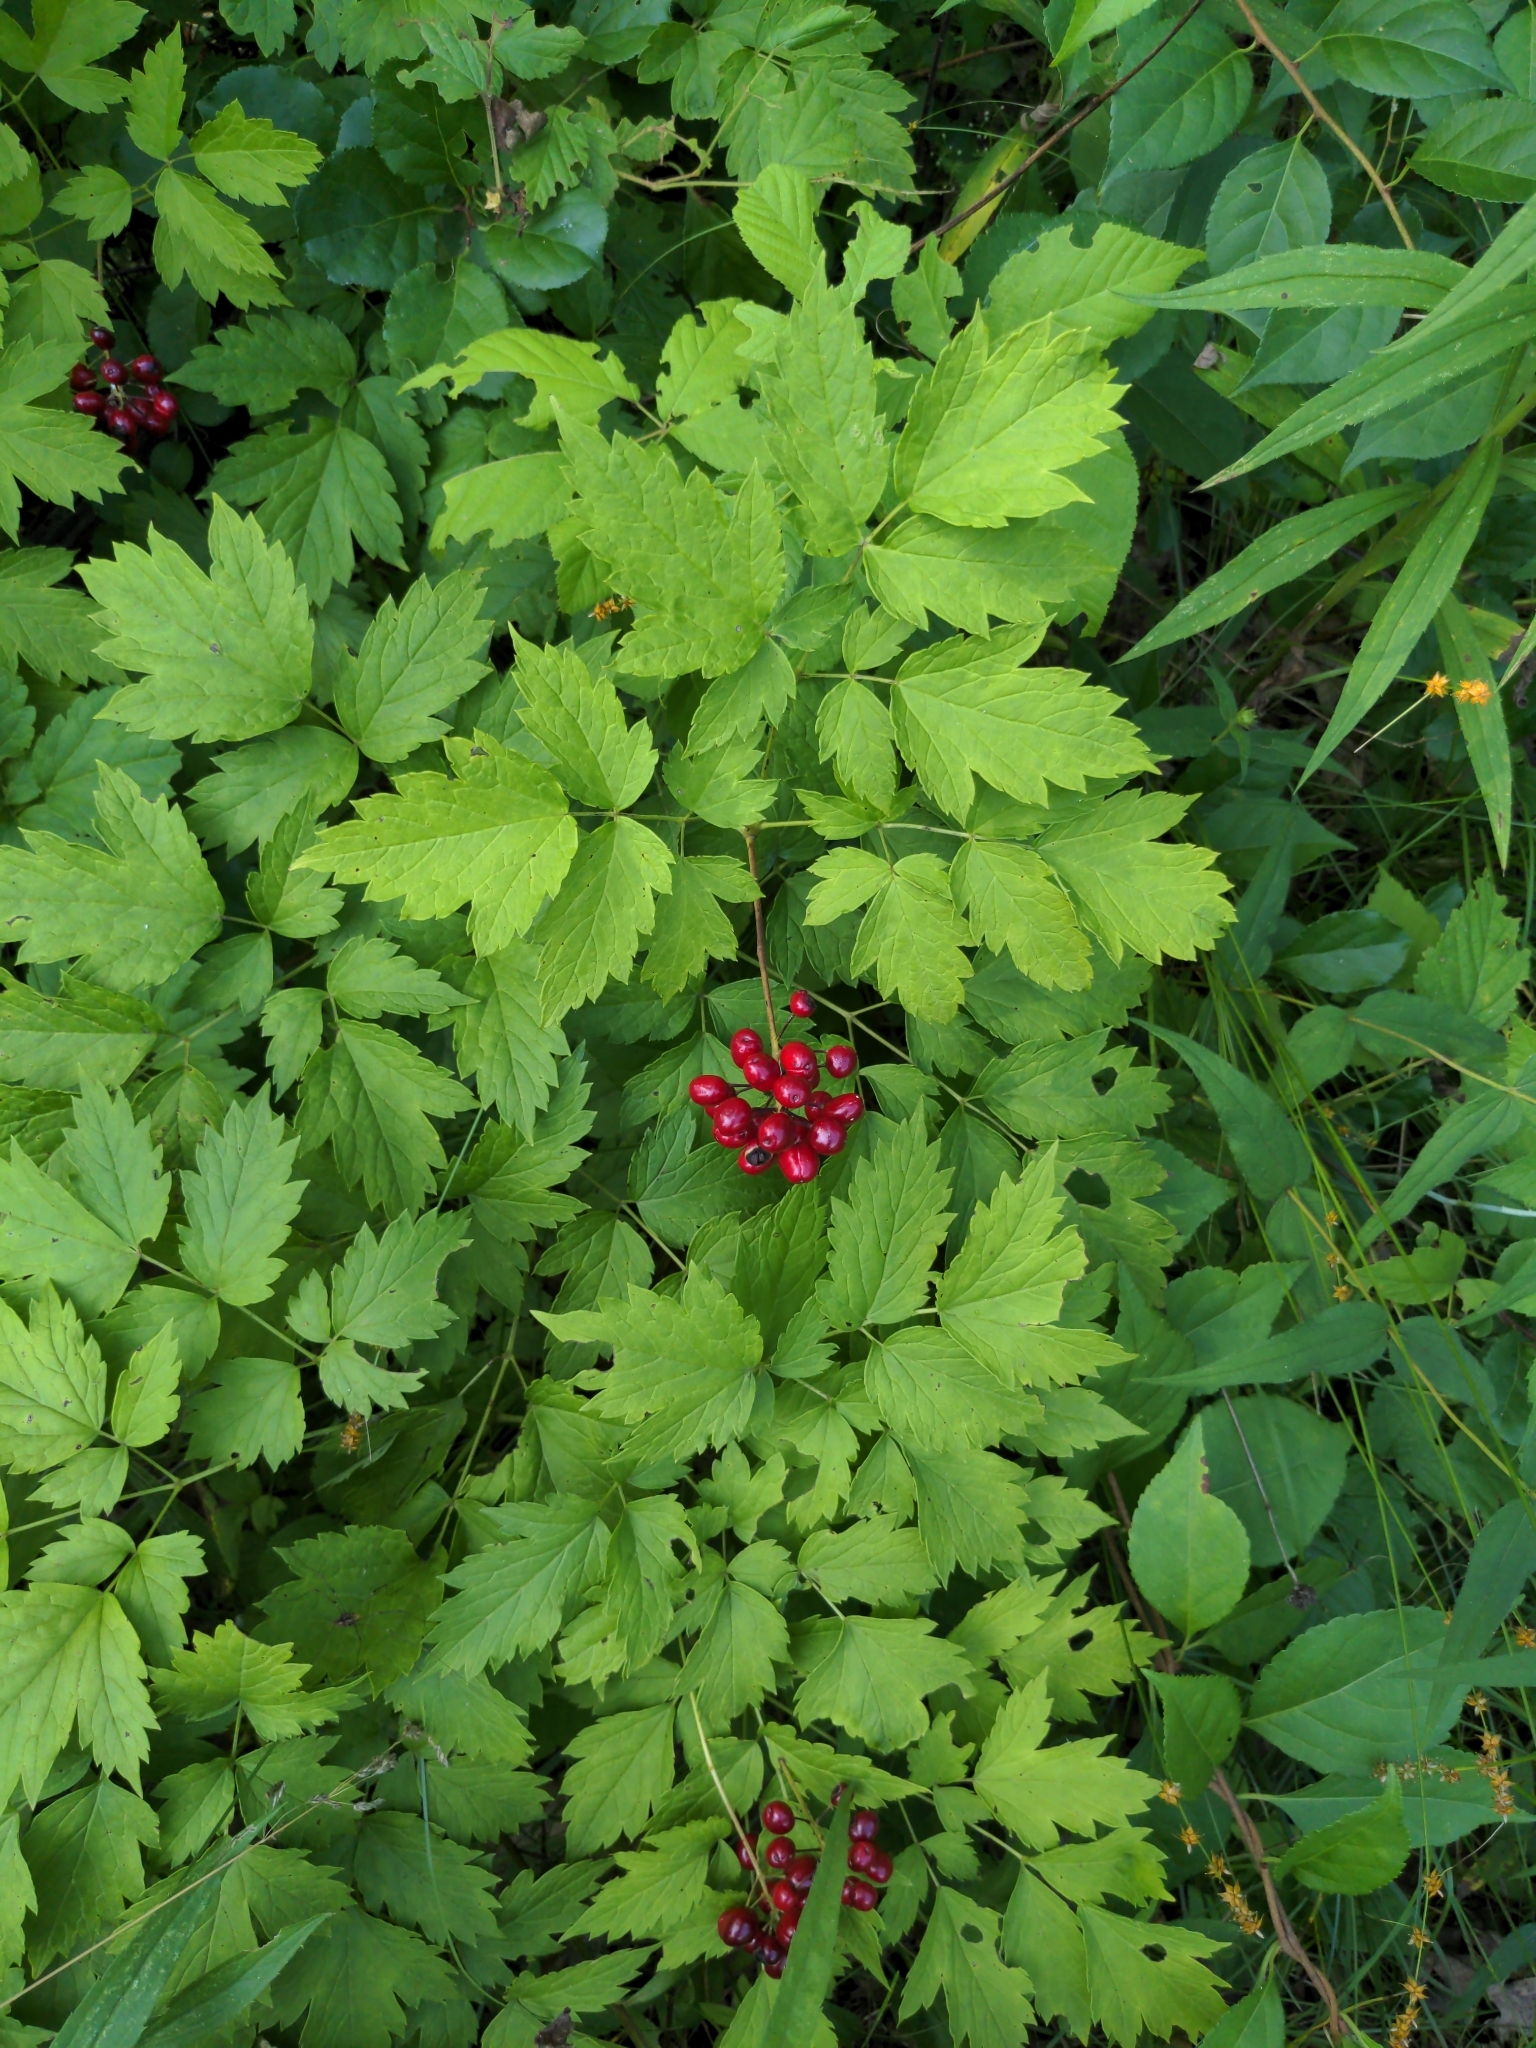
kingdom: Plantae
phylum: Tracheophyta
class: Magnoliopsida
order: Ranunculales
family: Ranunculaceae
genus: Actaea
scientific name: Actaea rubra
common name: Red baneberry
